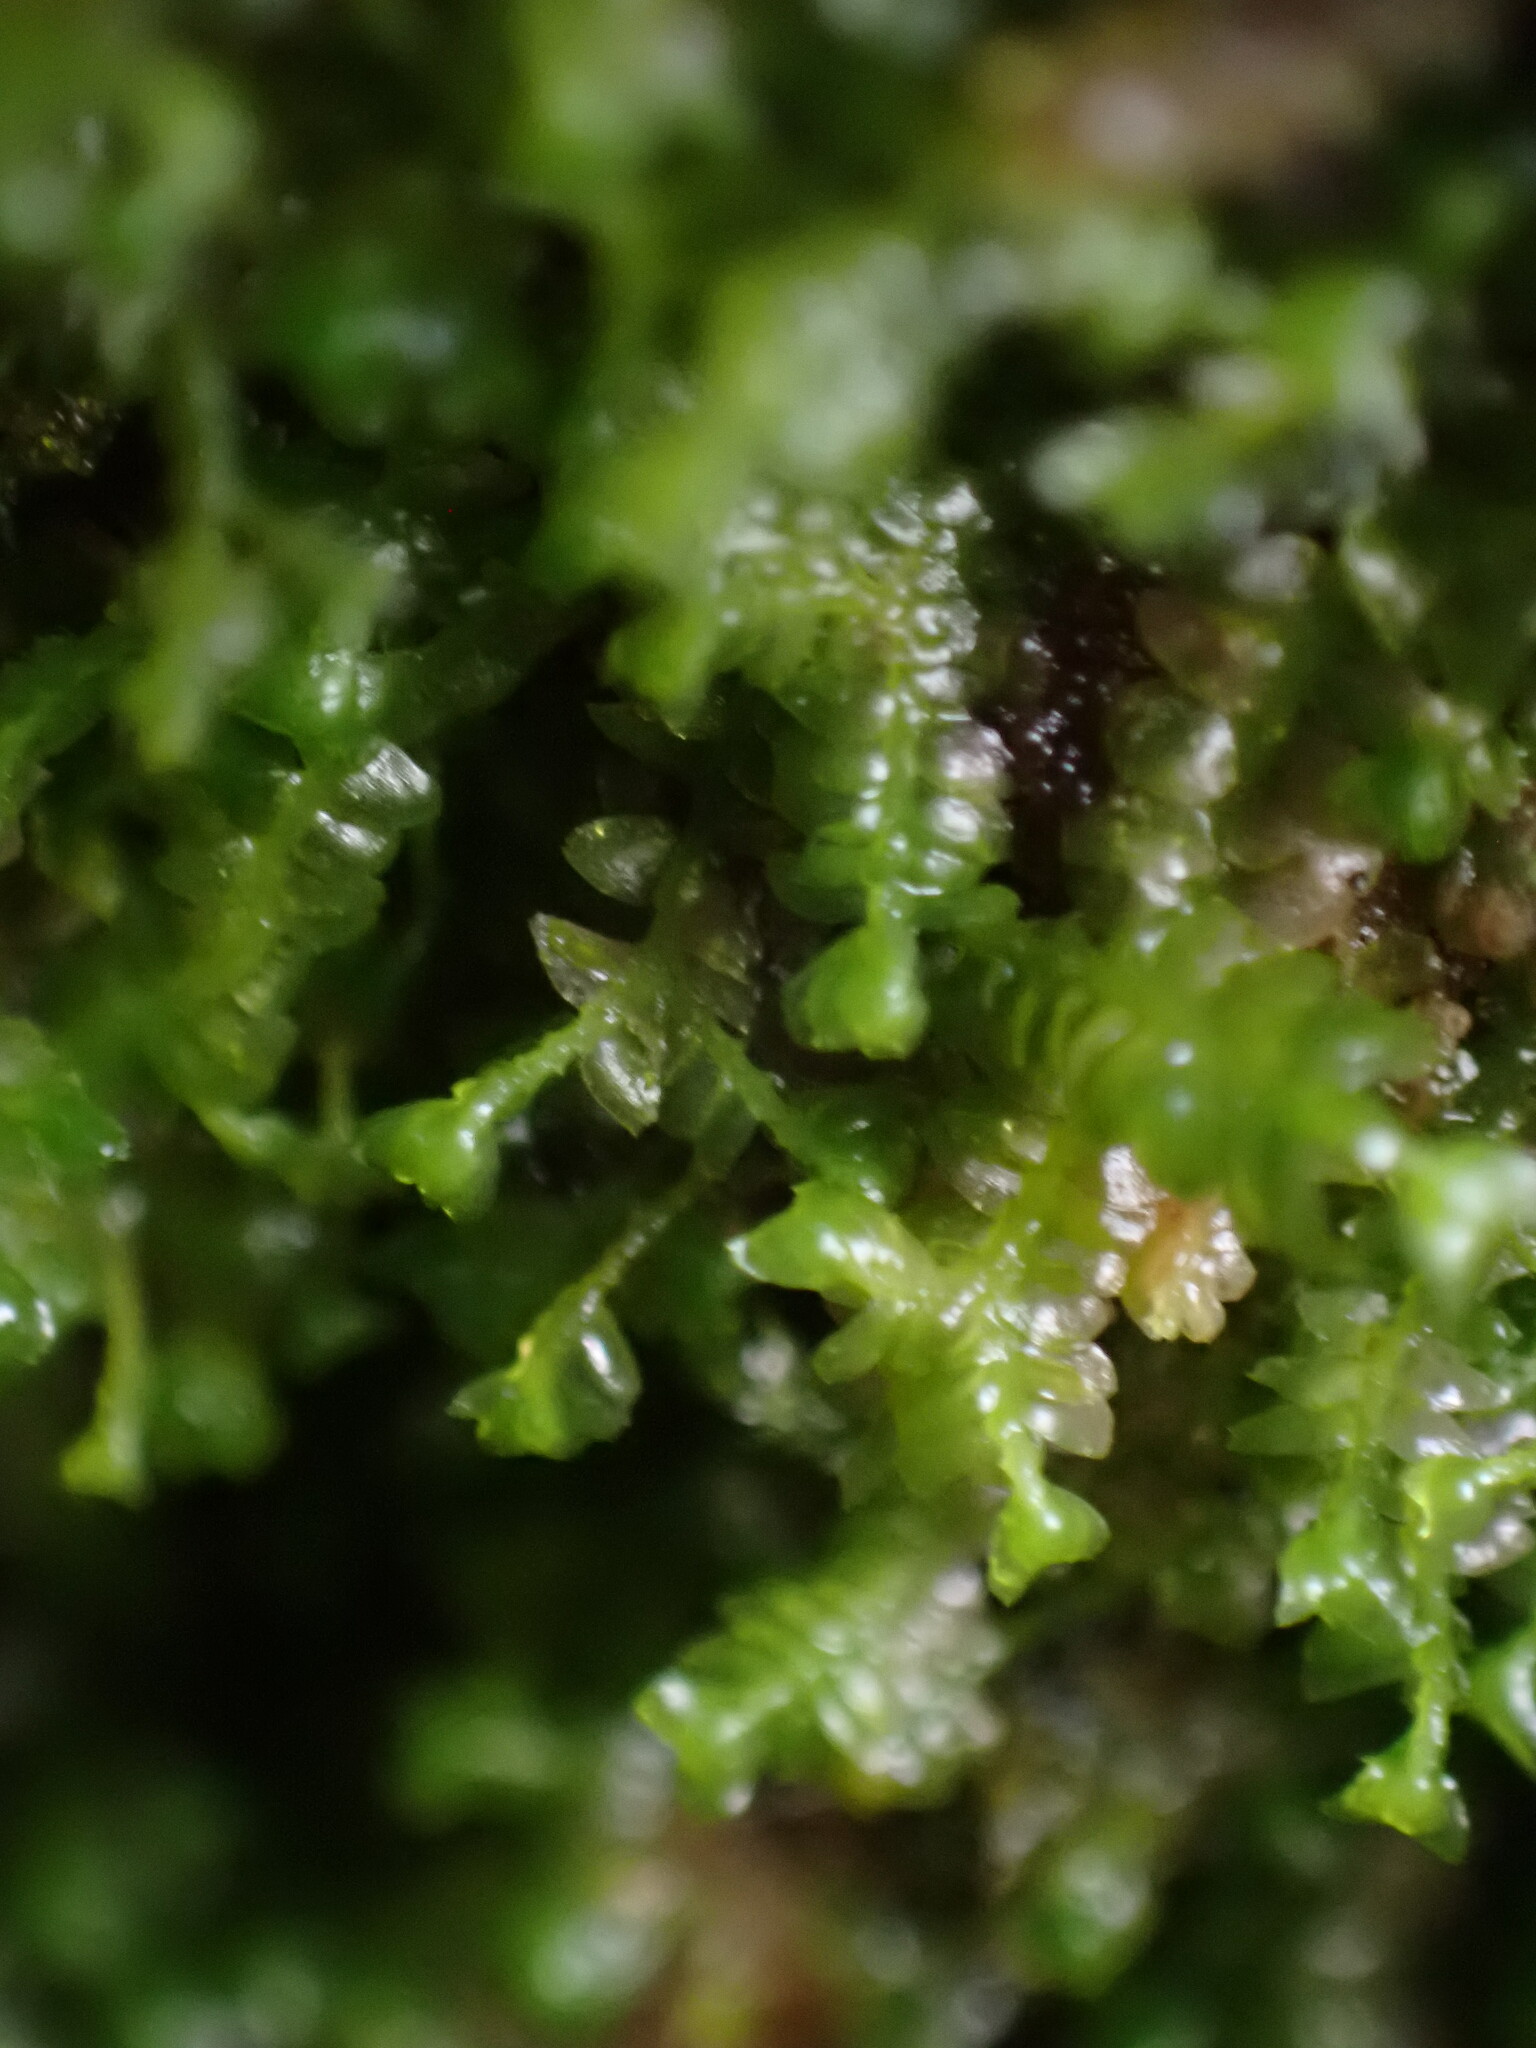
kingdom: Plantae
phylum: Marchantiophyta
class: Jungermanniopsida
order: Jungermanniales
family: Lepidoziaceae
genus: Bazzania
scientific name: Bazzania denudata
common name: Naked whipwort
